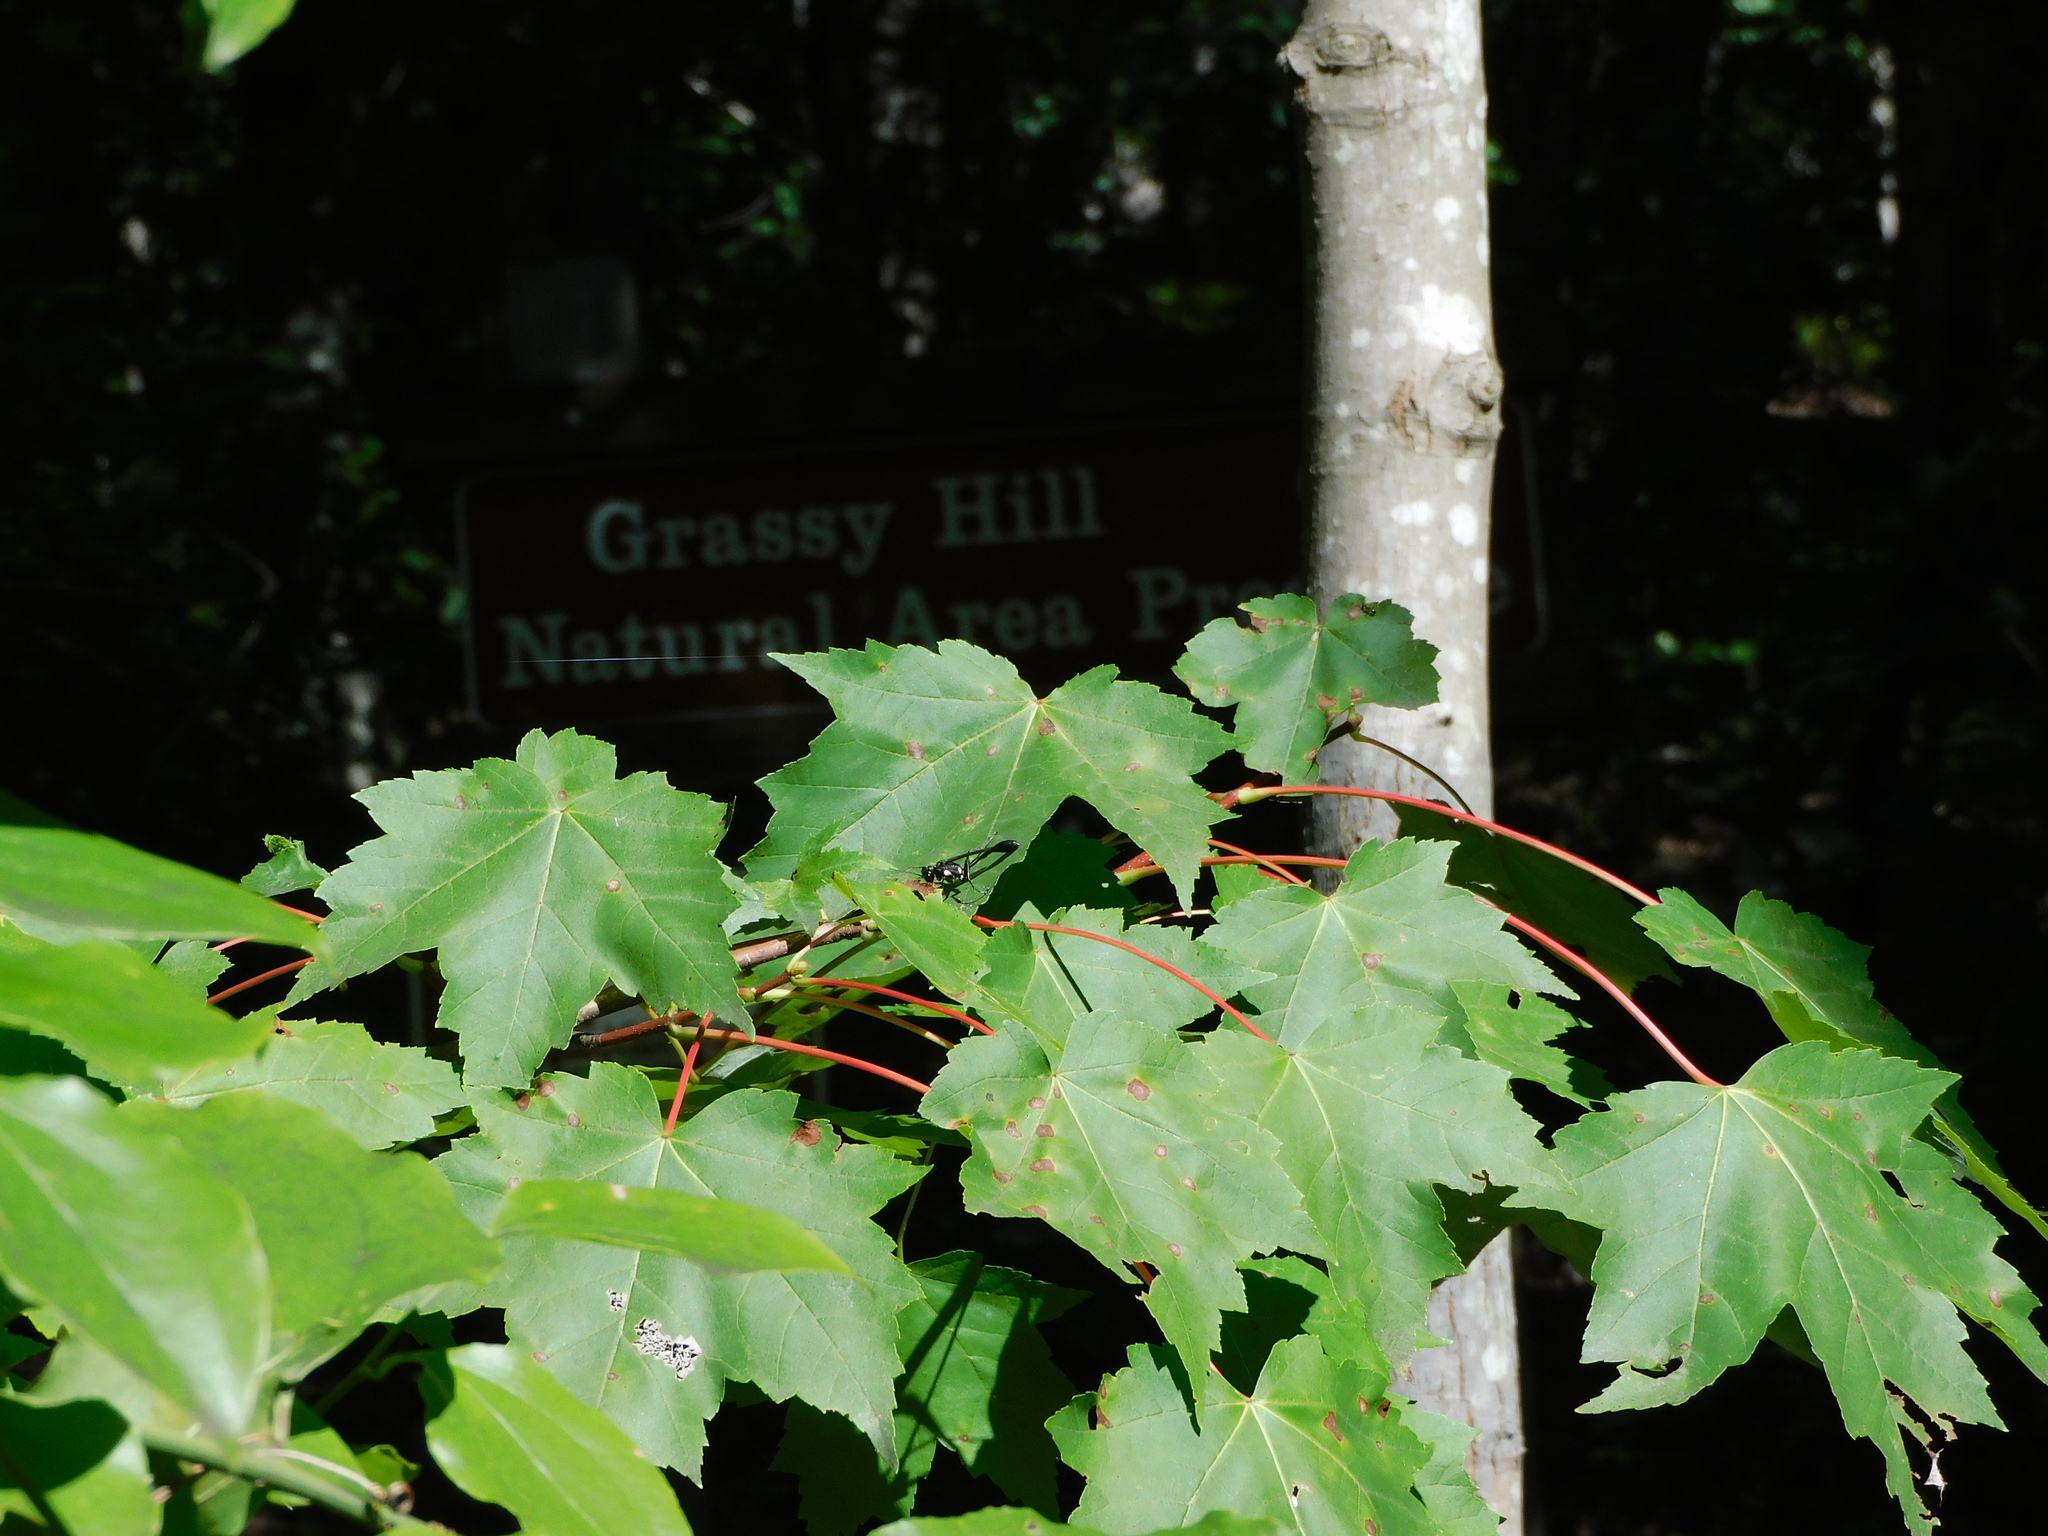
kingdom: Animalia
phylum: Arthropoda
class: Insecta
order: Hymenoptera
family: Sphecidae
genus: Eremnophila
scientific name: Eremnophila aureonotata
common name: Gold-marked thread-waisted wasp
